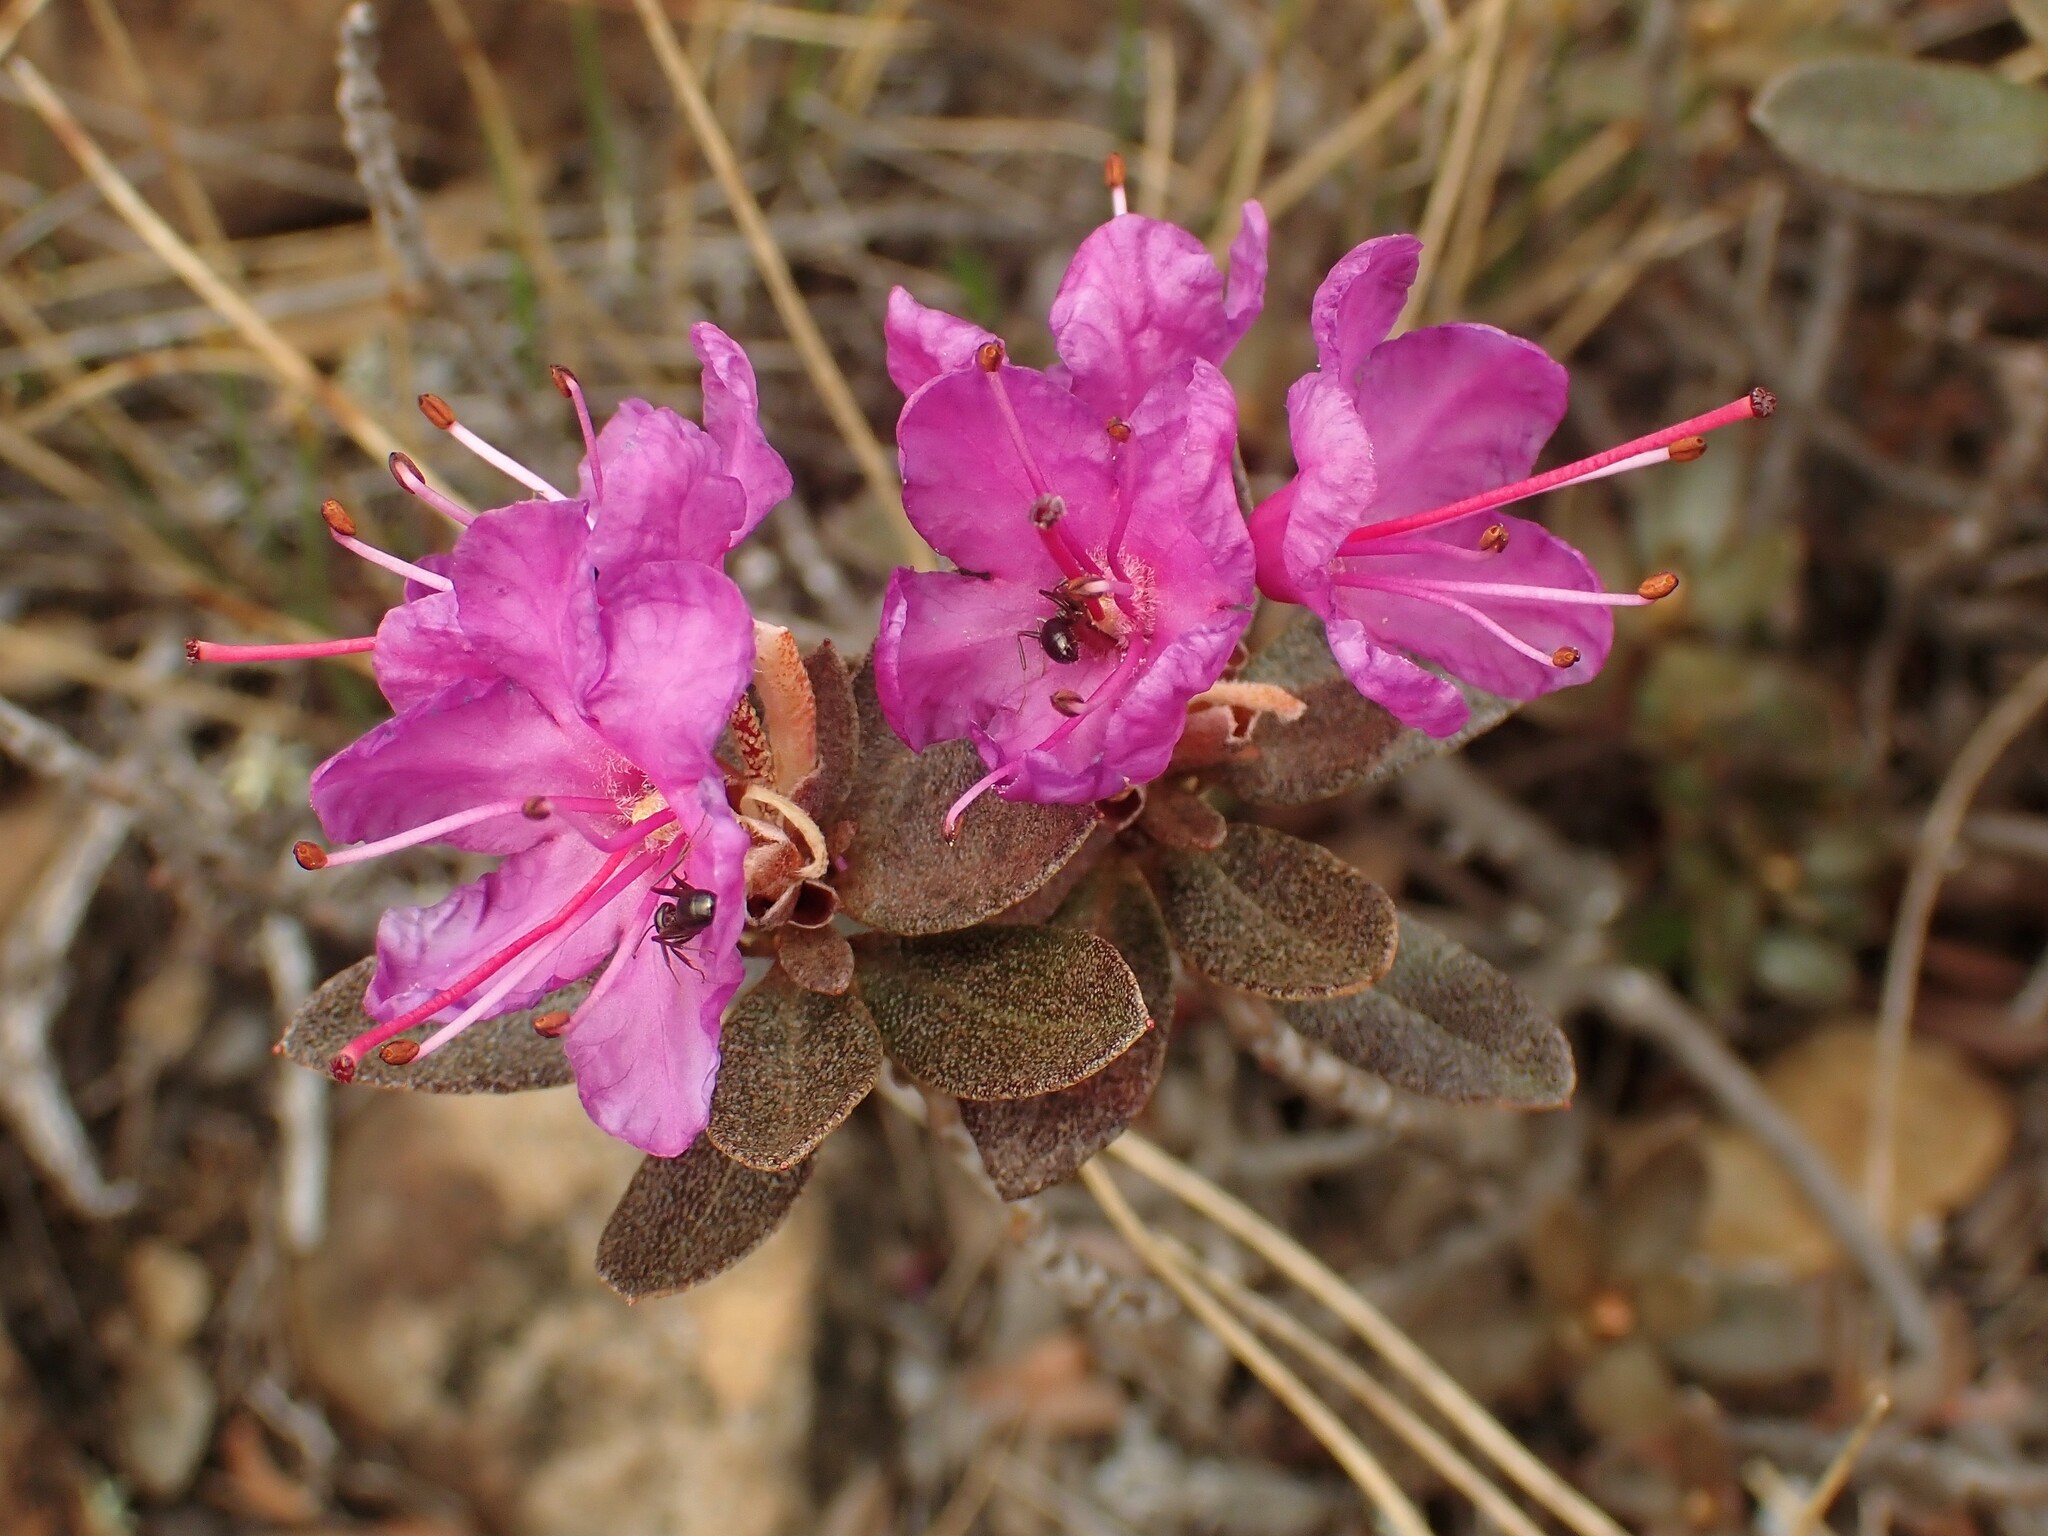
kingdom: Plantae
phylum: Tracheophyta
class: Magnoliopsida
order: Ericales
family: Ericaceae
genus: Rhododendron
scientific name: Rhododendron lapponicum
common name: Lapland rhododendron
